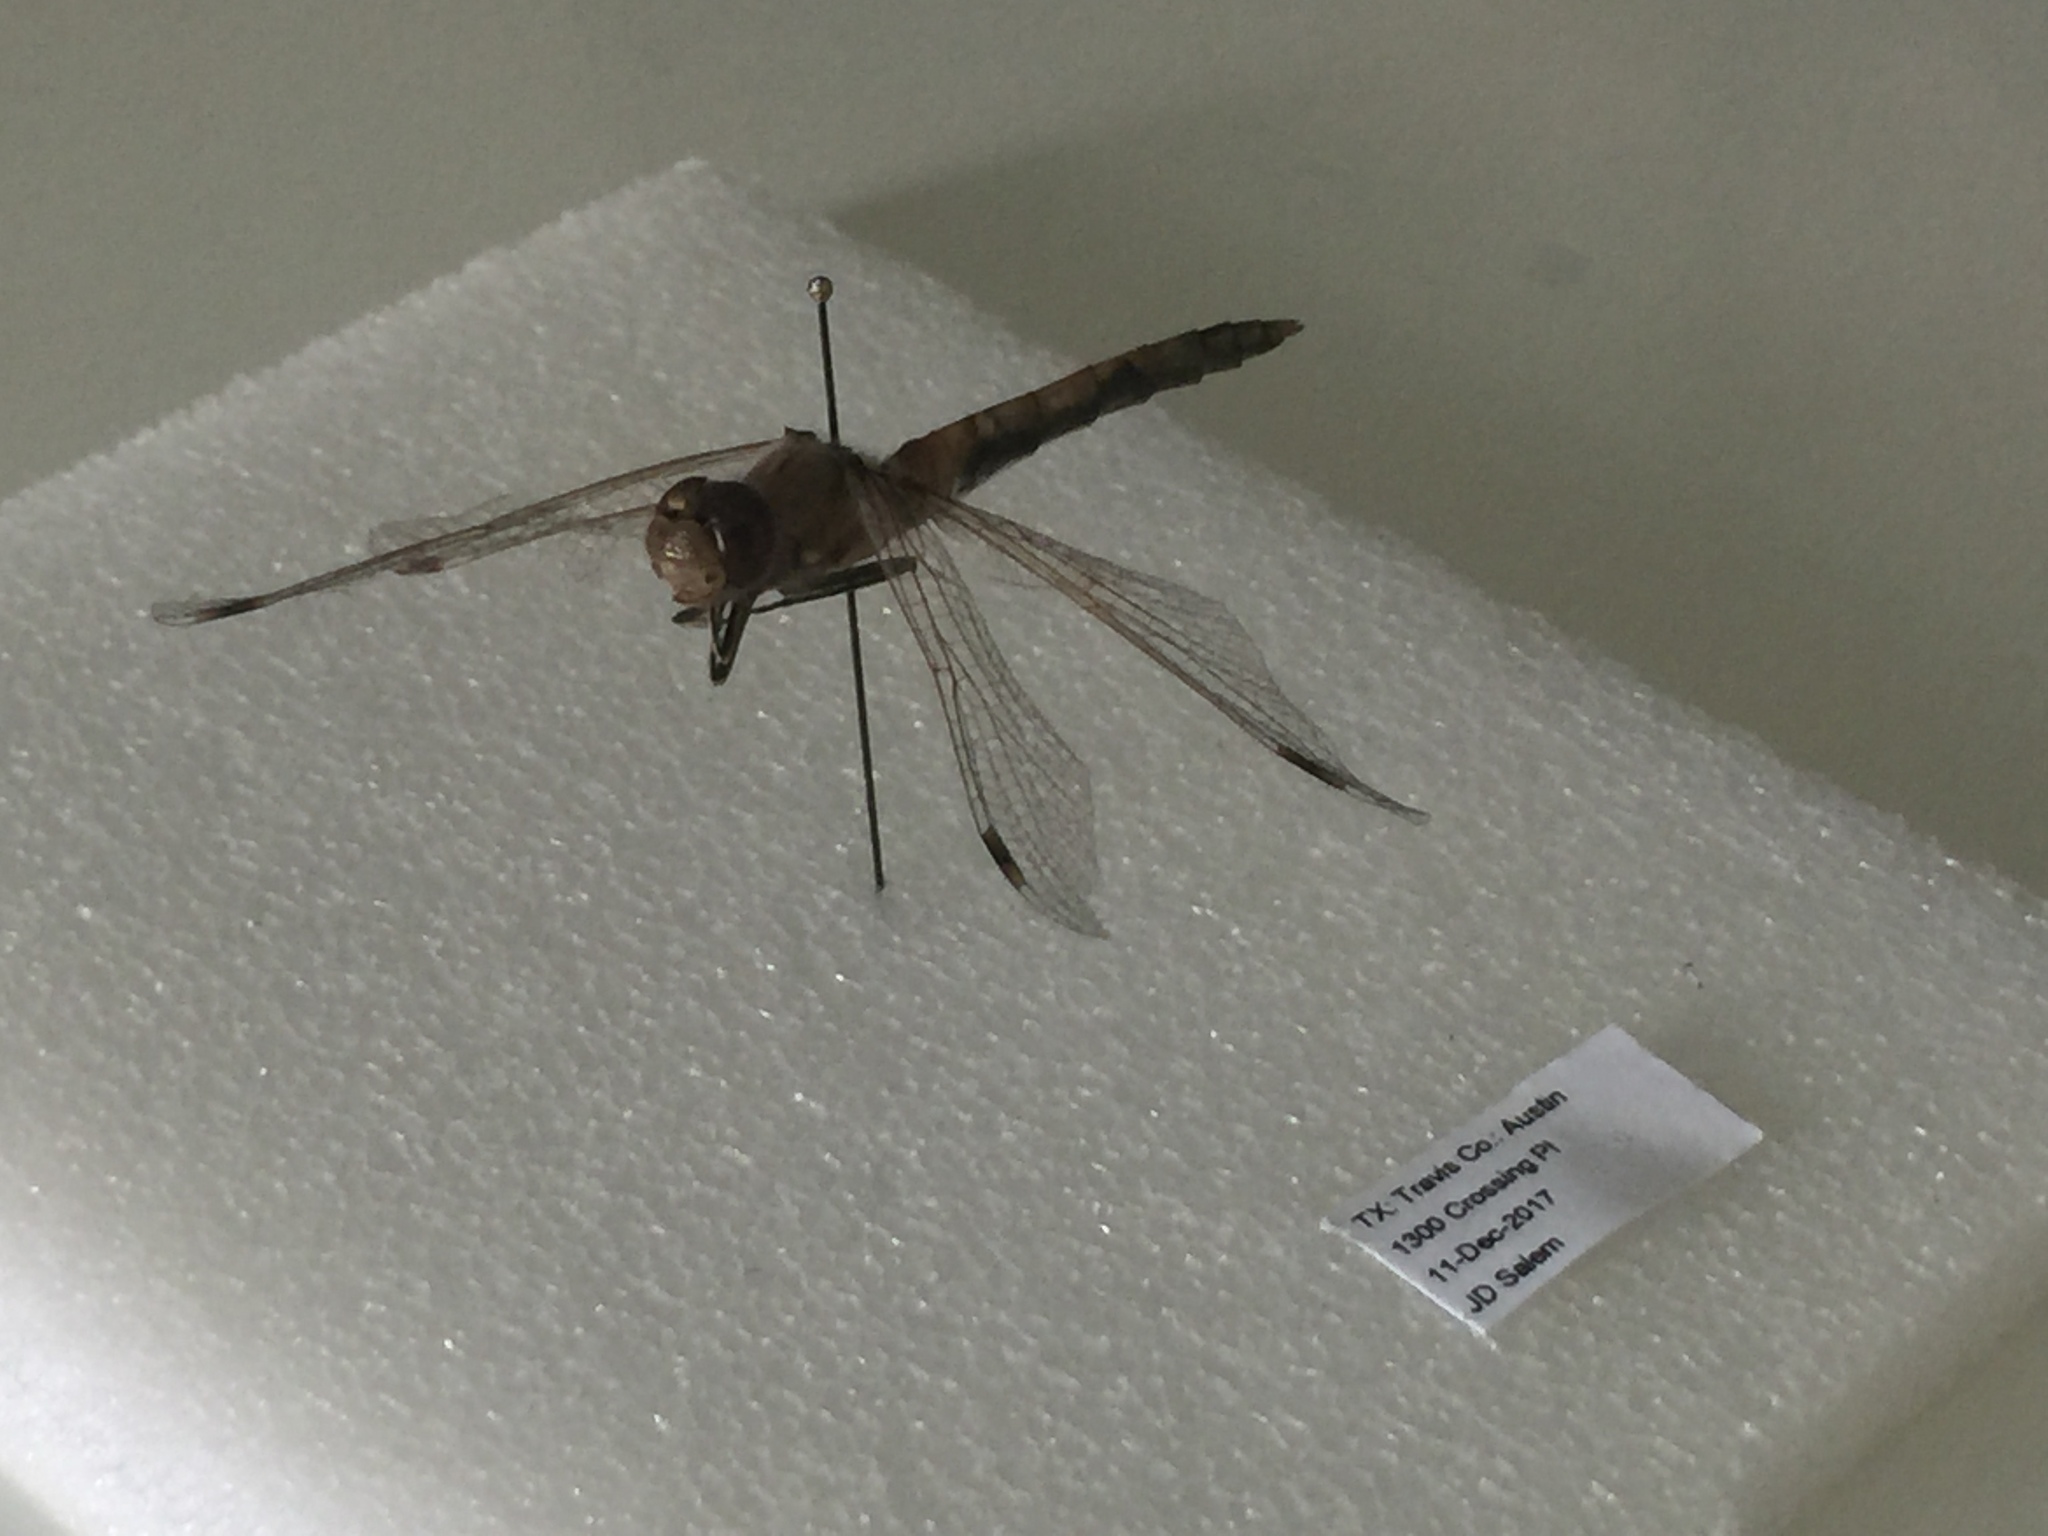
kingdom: Animalia
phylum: Arthropoda
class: Insecta
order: Odonata
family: Libellulidae
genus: Sympetrum
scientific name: Sympetrum corruptum
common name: Variegated meadowhawk
